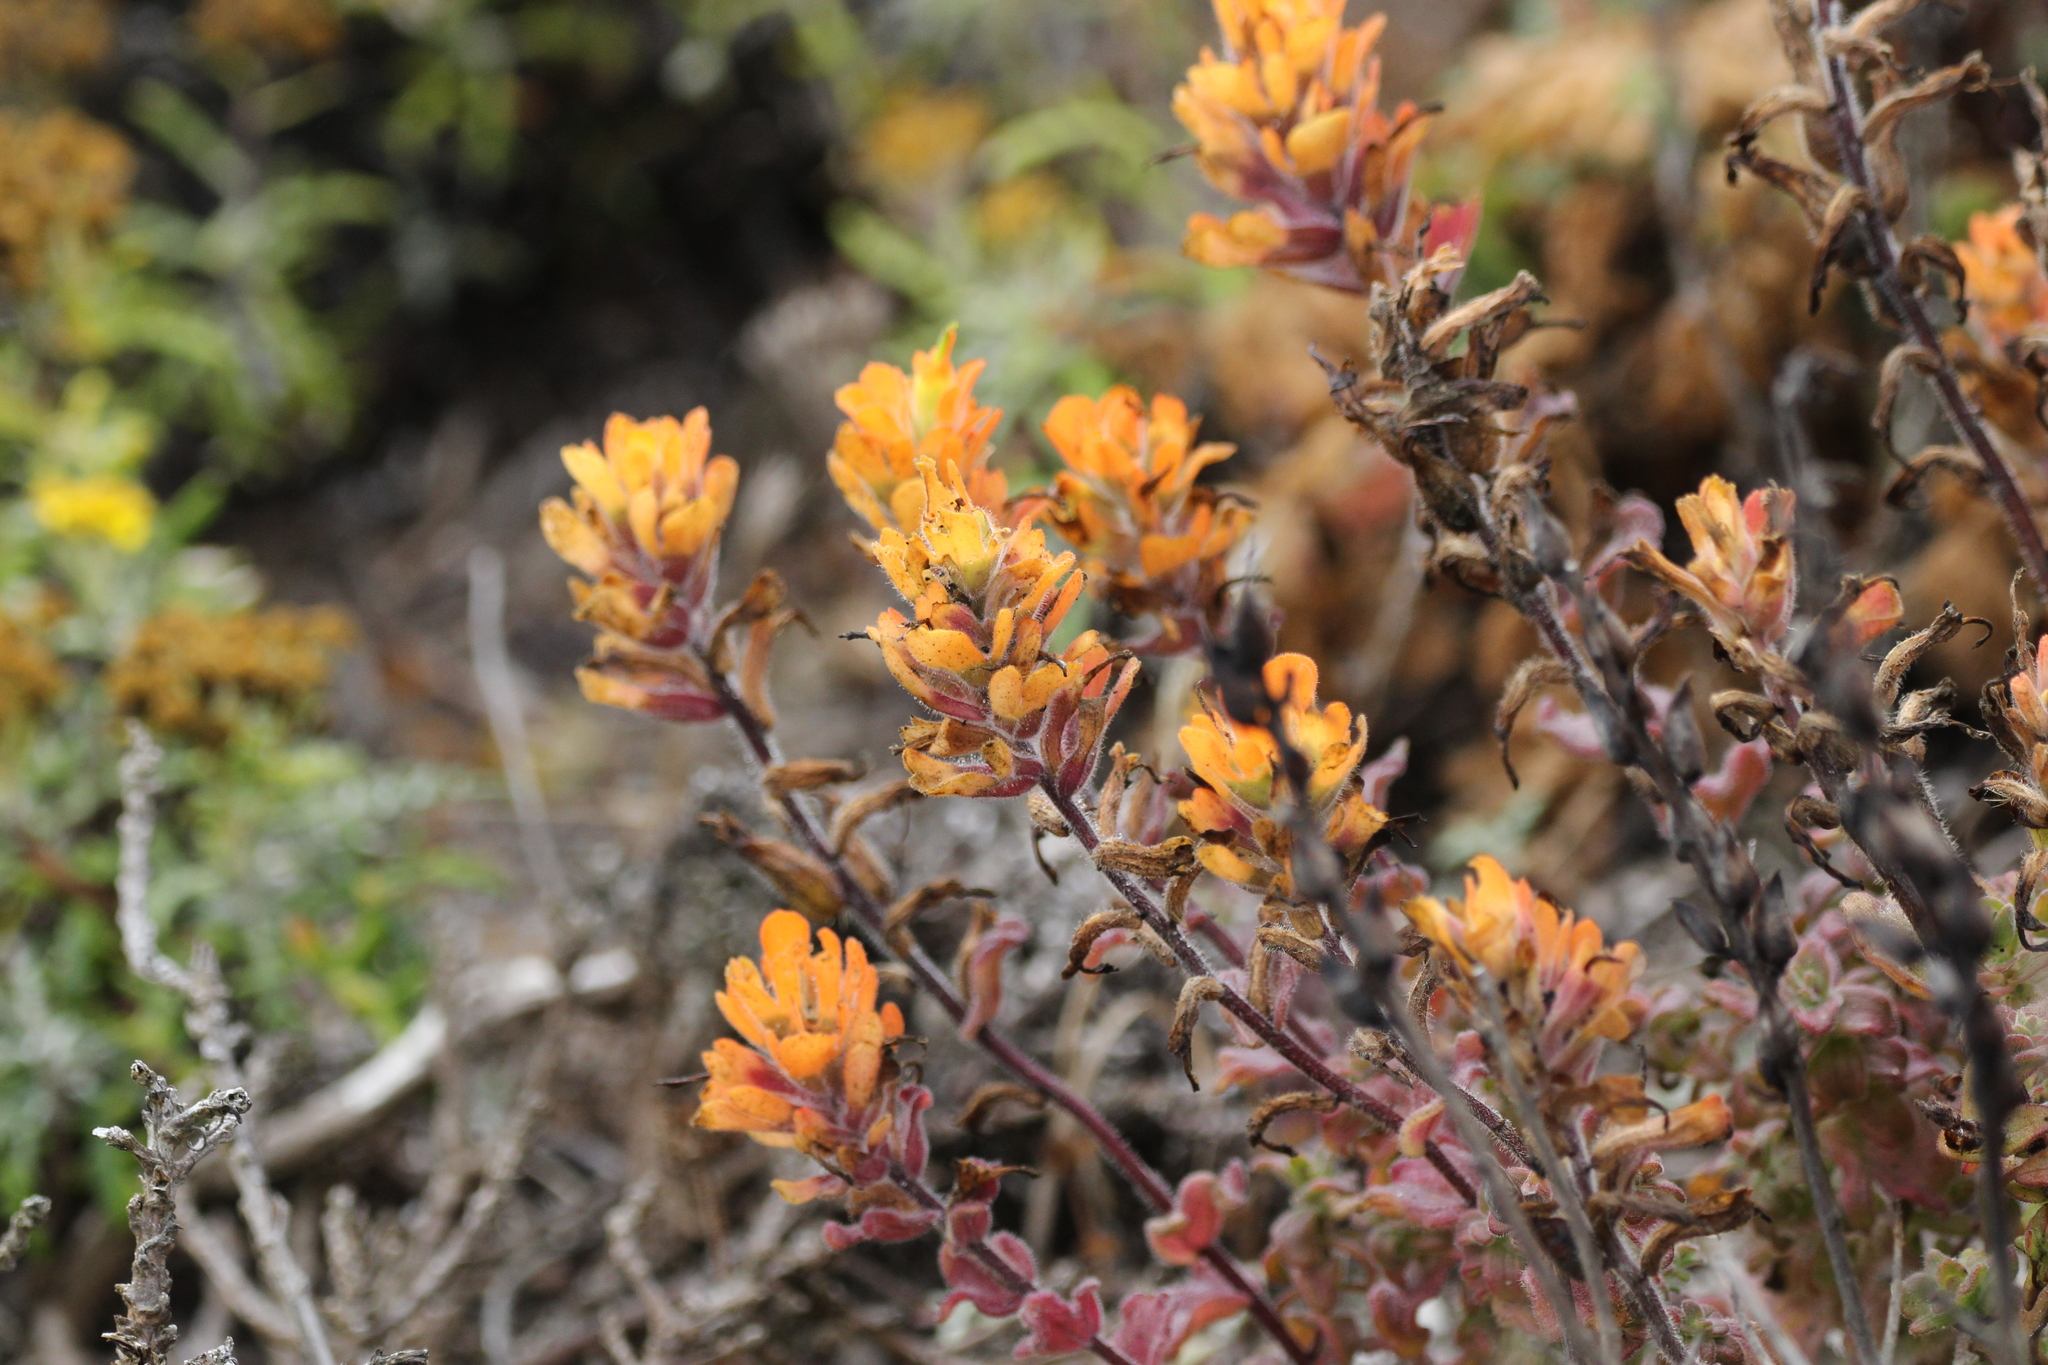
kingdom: Plantae
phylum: Tracheophyta
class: Magnoliopsida
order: Lamiales
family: Orobanchaceae
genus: Castilleja
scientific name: Castilleja latifolia
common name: Monterey indian paintbrush
